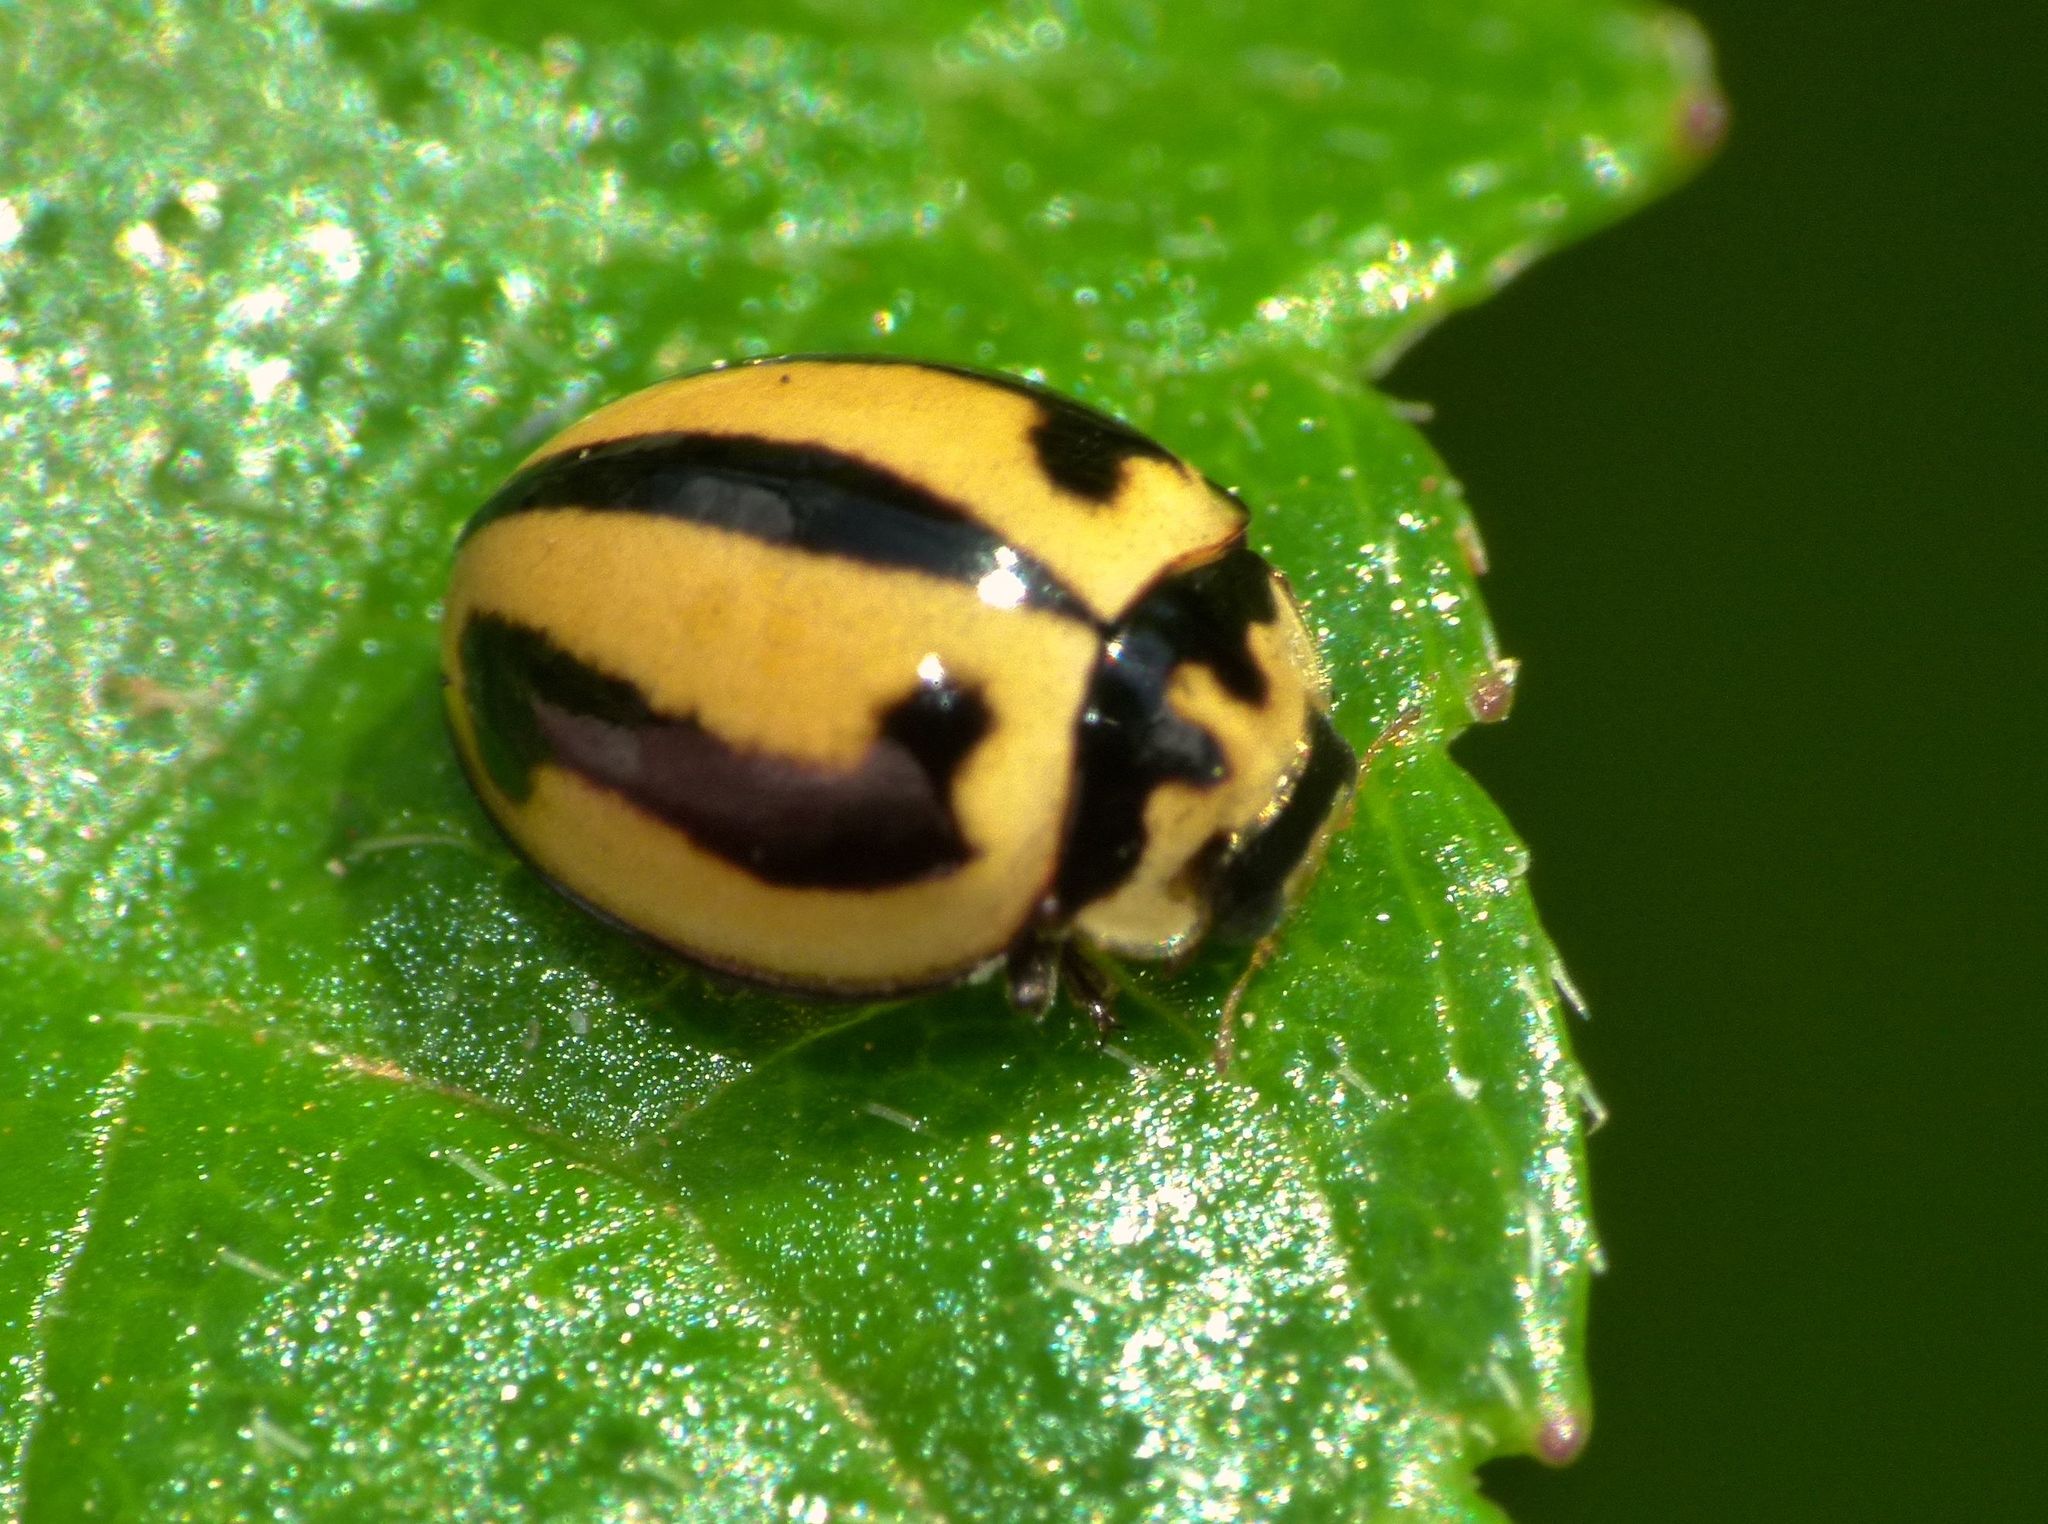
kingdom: Animalia
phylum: Arthropoda
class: Insecta
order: Coleoptera
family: Coccinellidae
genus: Micraspis
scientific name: Micraspis frenata
